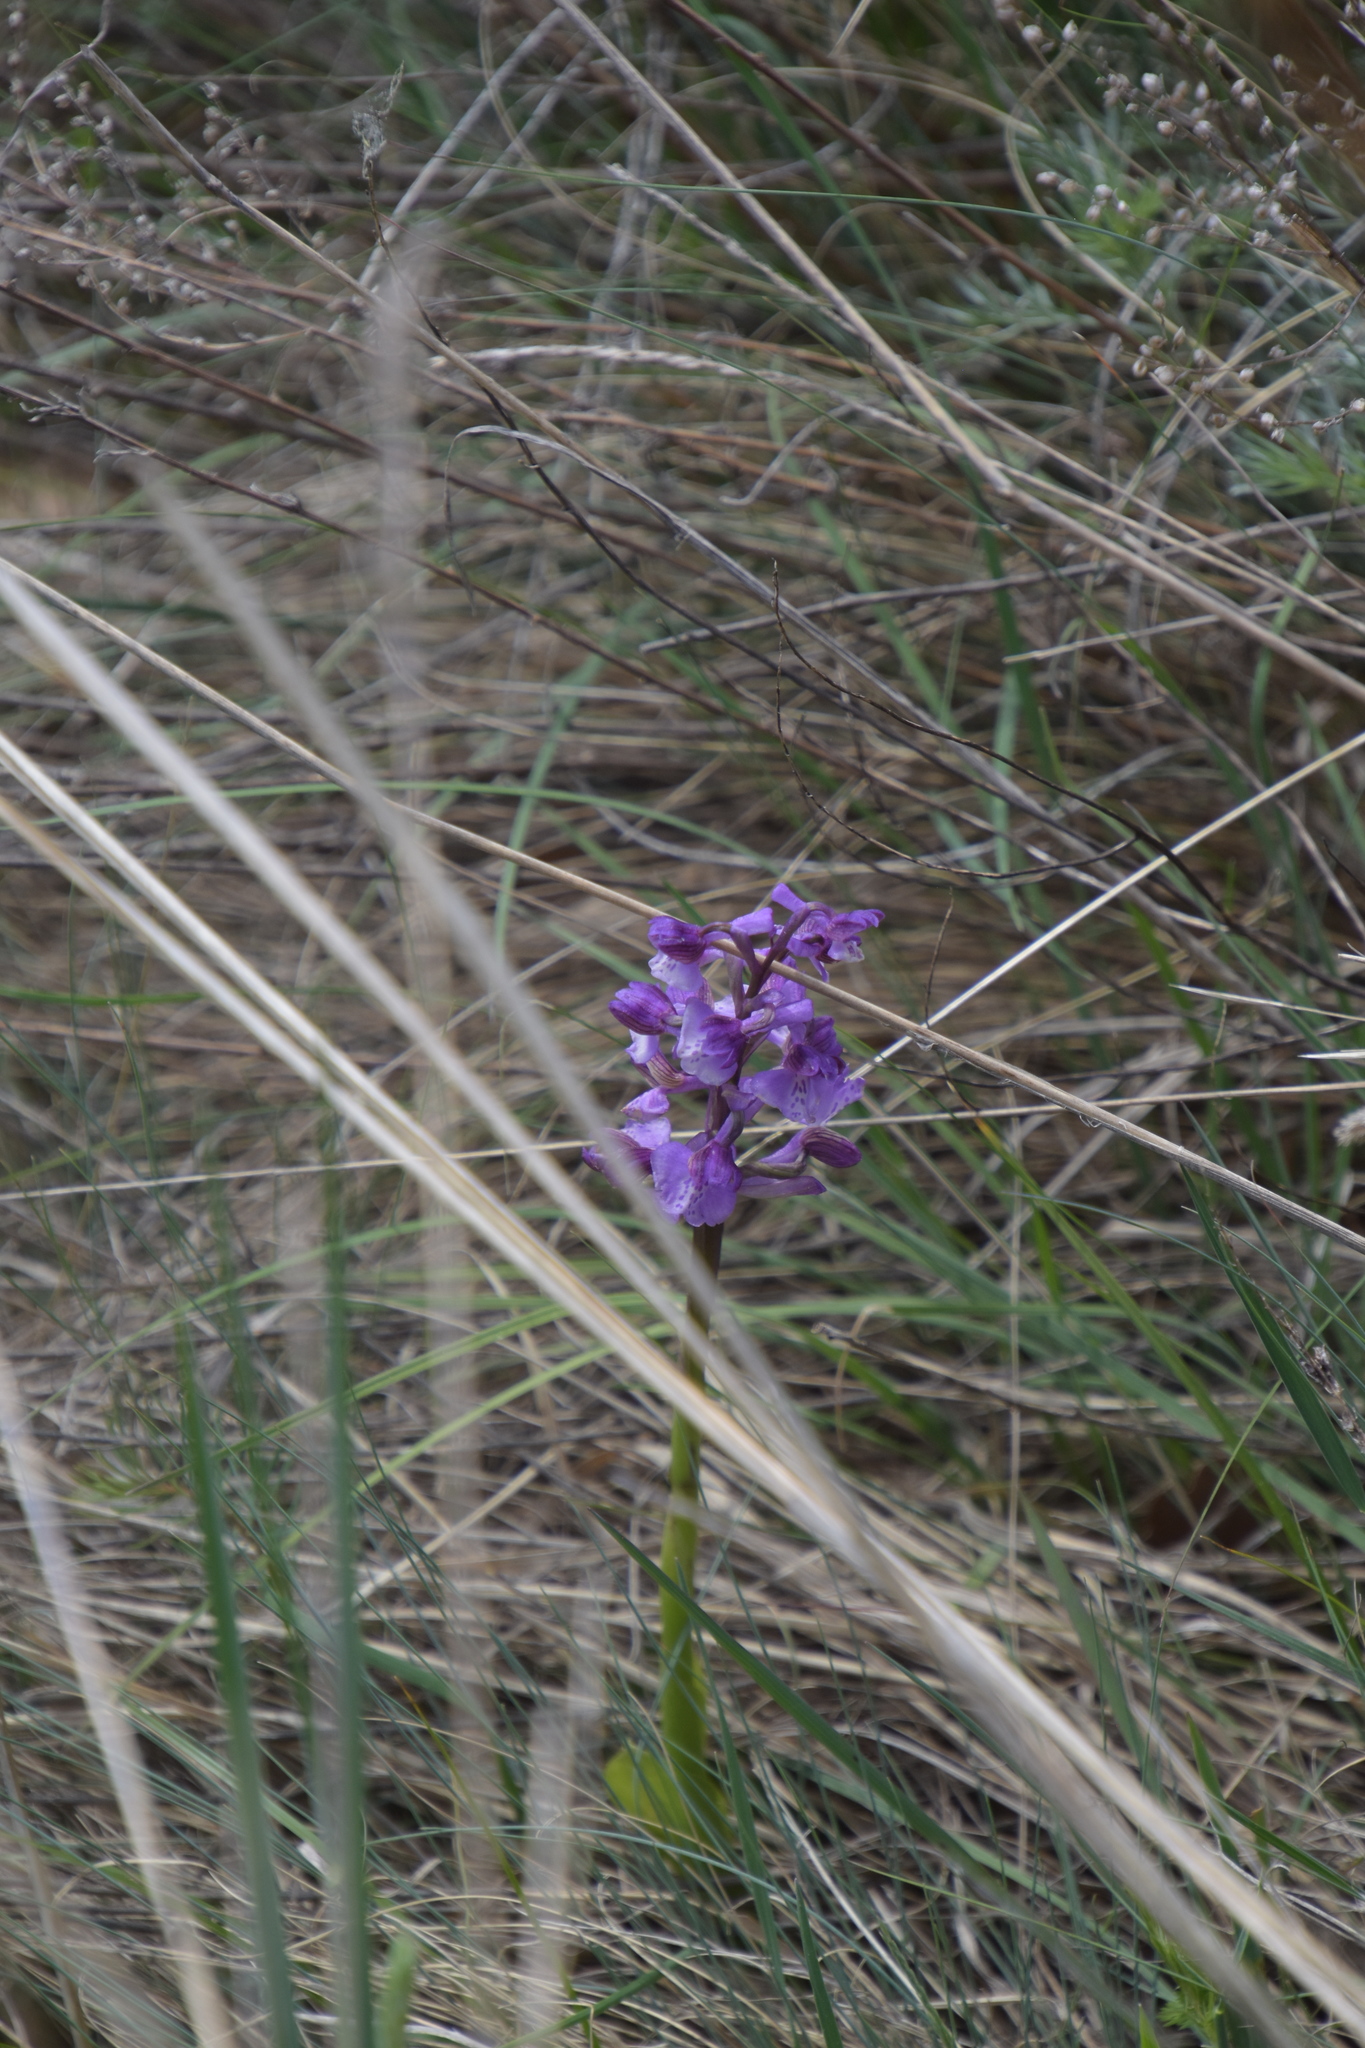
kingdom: Plantae
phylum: Tracheophyta
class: Liliopsida
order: Asparagales
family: Orchidaceae
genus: Anacamptis
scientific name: Anacamptis morio
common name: Green-winged orchid
